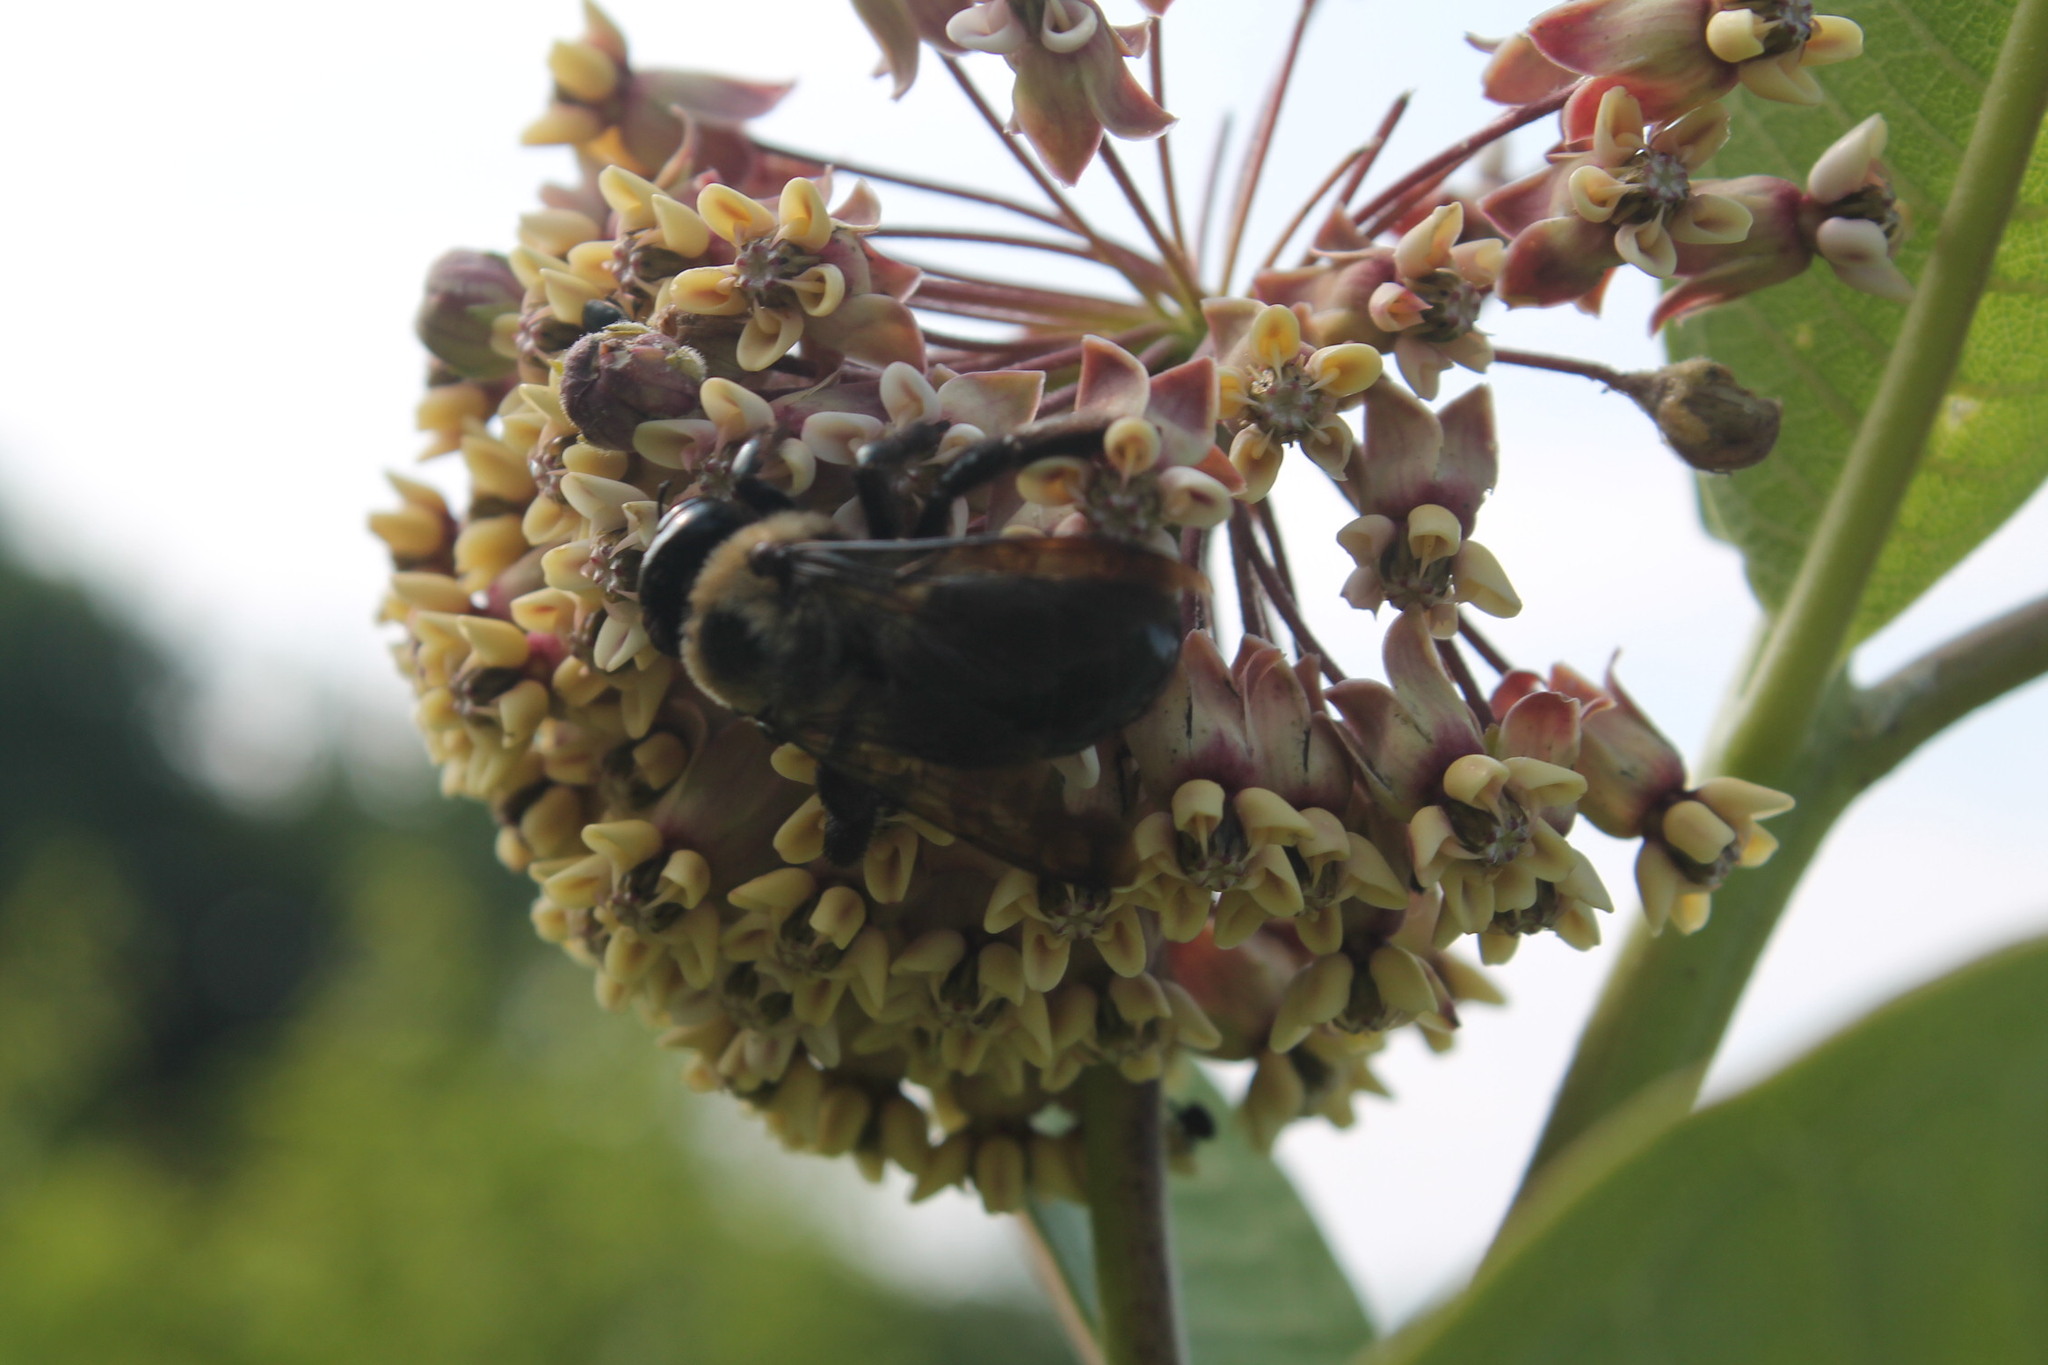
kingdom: Animalia
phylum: Arthropoda
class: Insecta
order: Hymenoptera
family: Apidae
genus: Xylocopa
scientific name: Xylocopa virginica
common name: Carpenter bee
